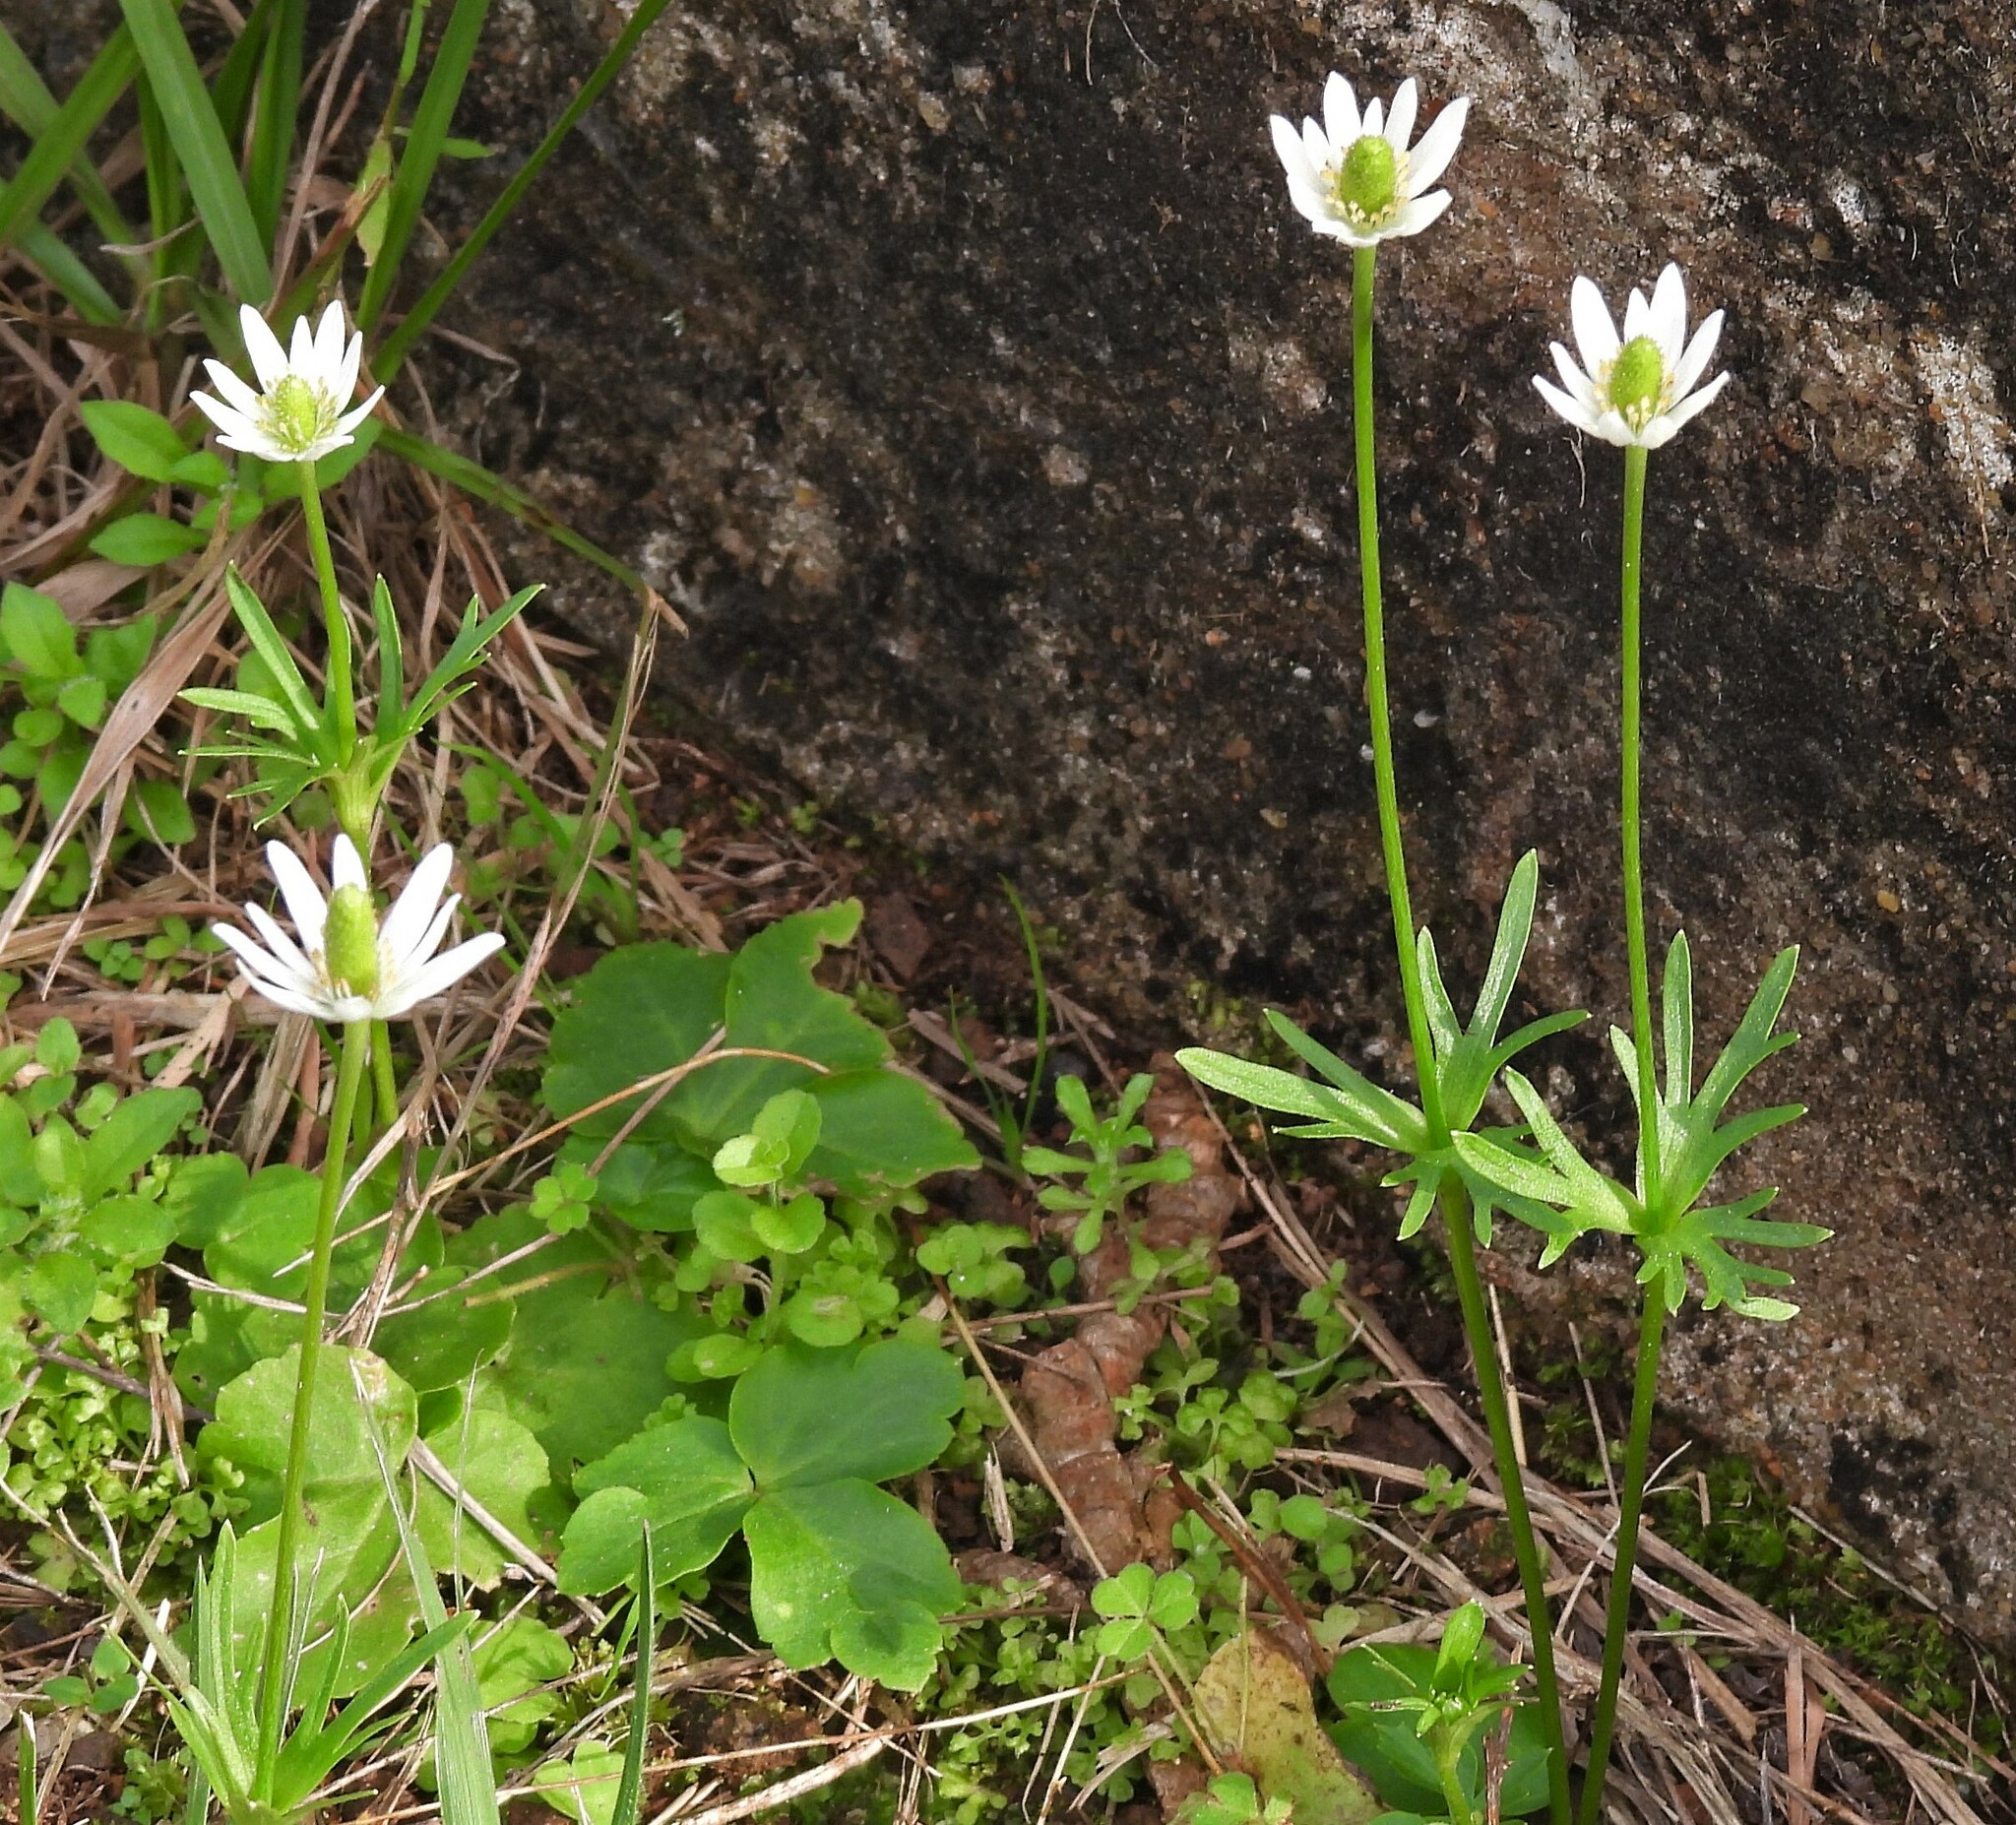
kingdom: Plantae
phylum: Tracheophyta
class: Magnoliopsida
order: Ranunculales
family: Ranunculaceae
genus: Anemone
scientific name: Anemone decapetala
